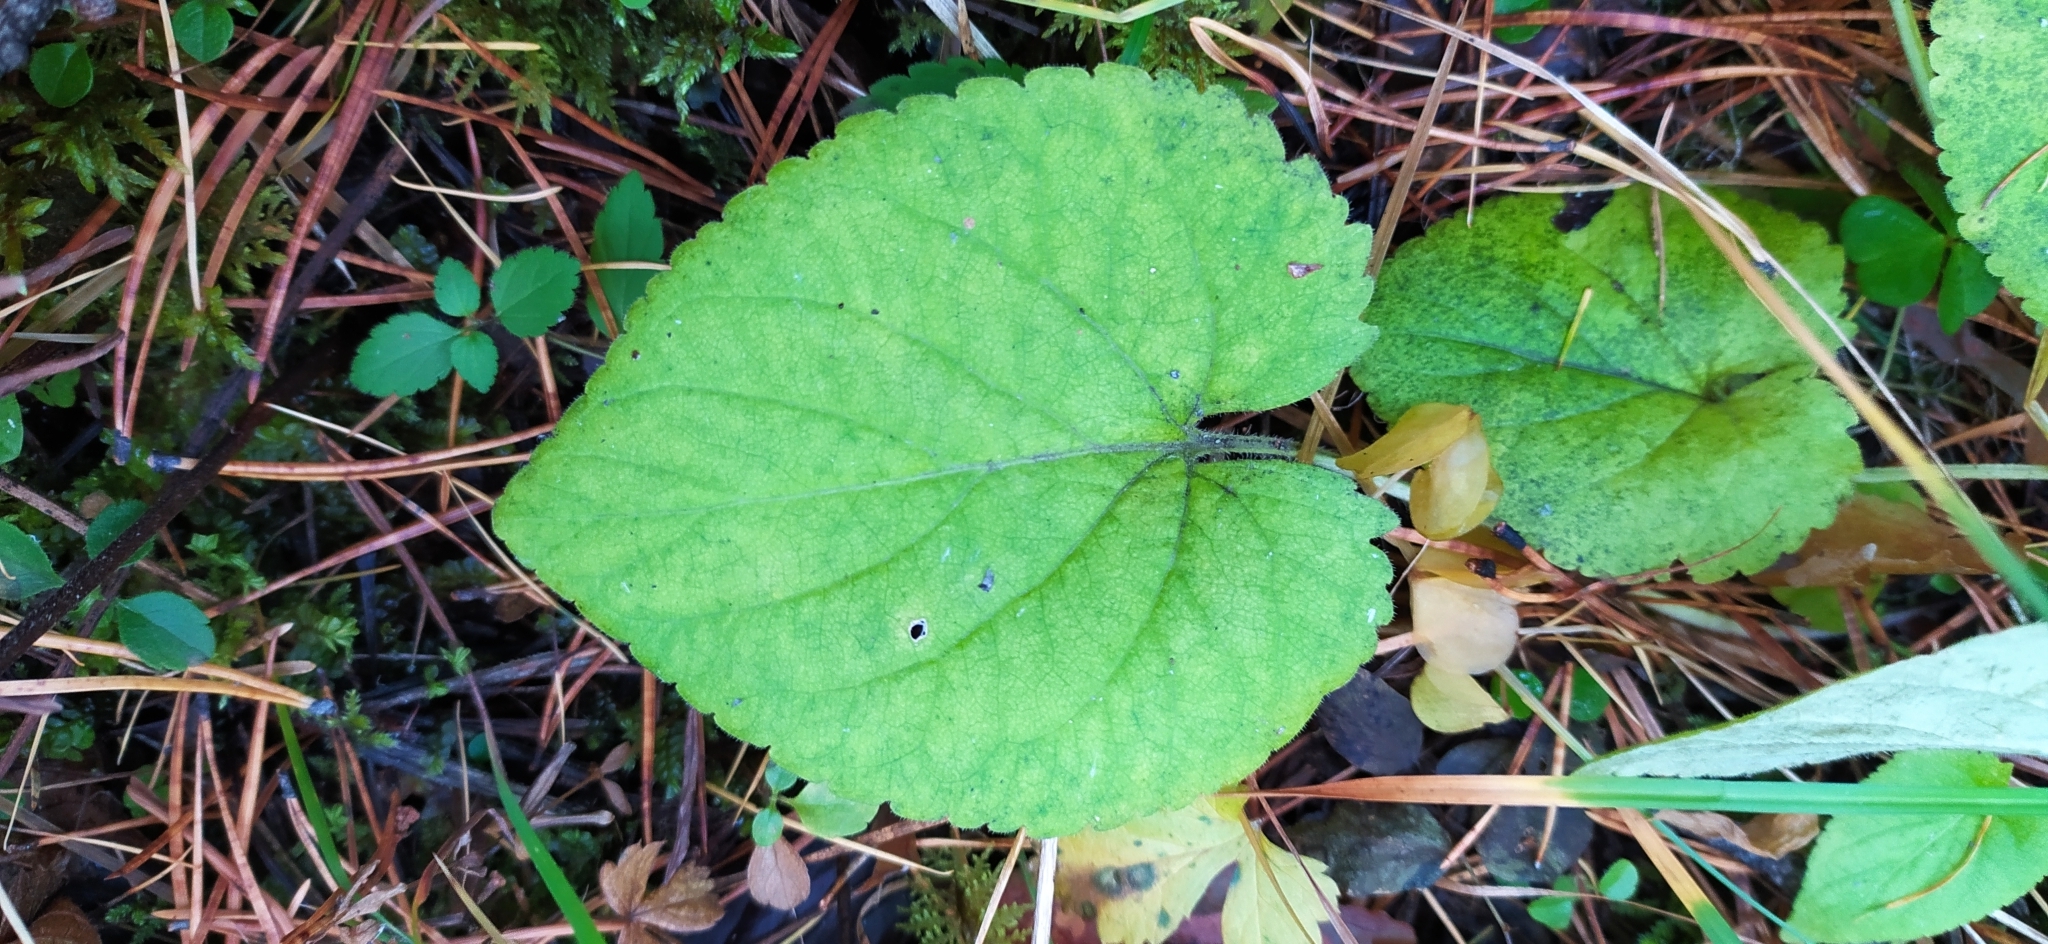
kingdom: Plantae
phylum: Tracheophyta
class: Magnoliopsida
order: Malpighiales
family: Violaceae
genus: Viola
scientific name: Viola collina
